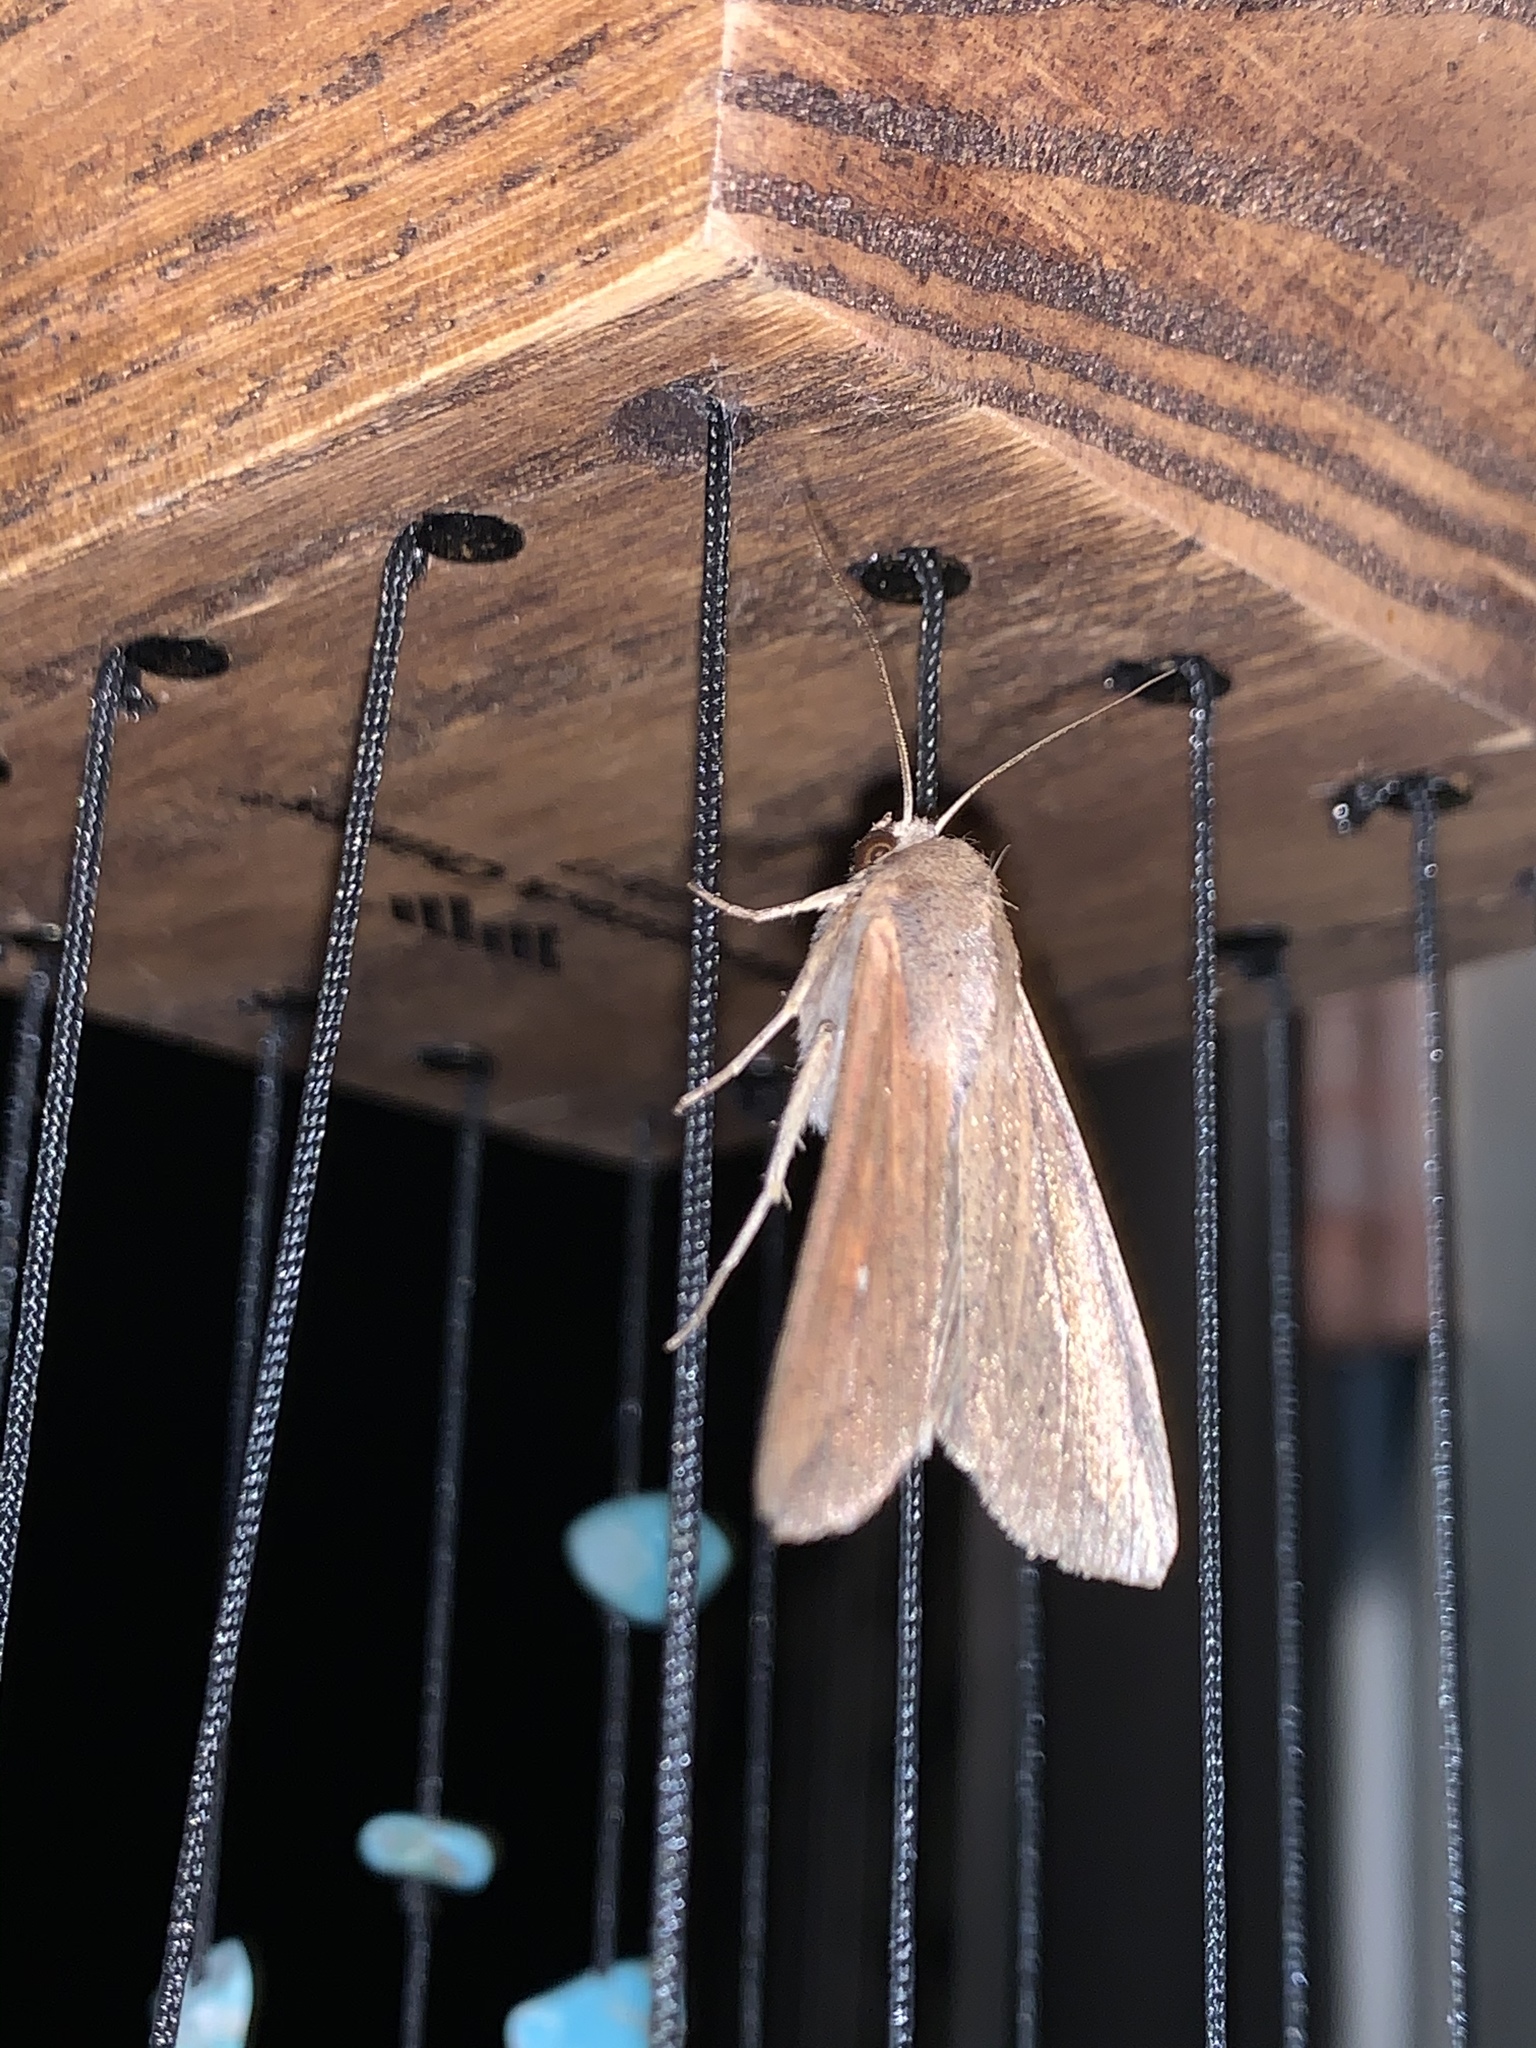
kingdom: Animalia
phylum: Arthropoda
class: Insecta
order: Lepidoptera
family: Noctuidae
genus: Mythimna
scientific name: Mythimna unipuncta
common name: White-speck
